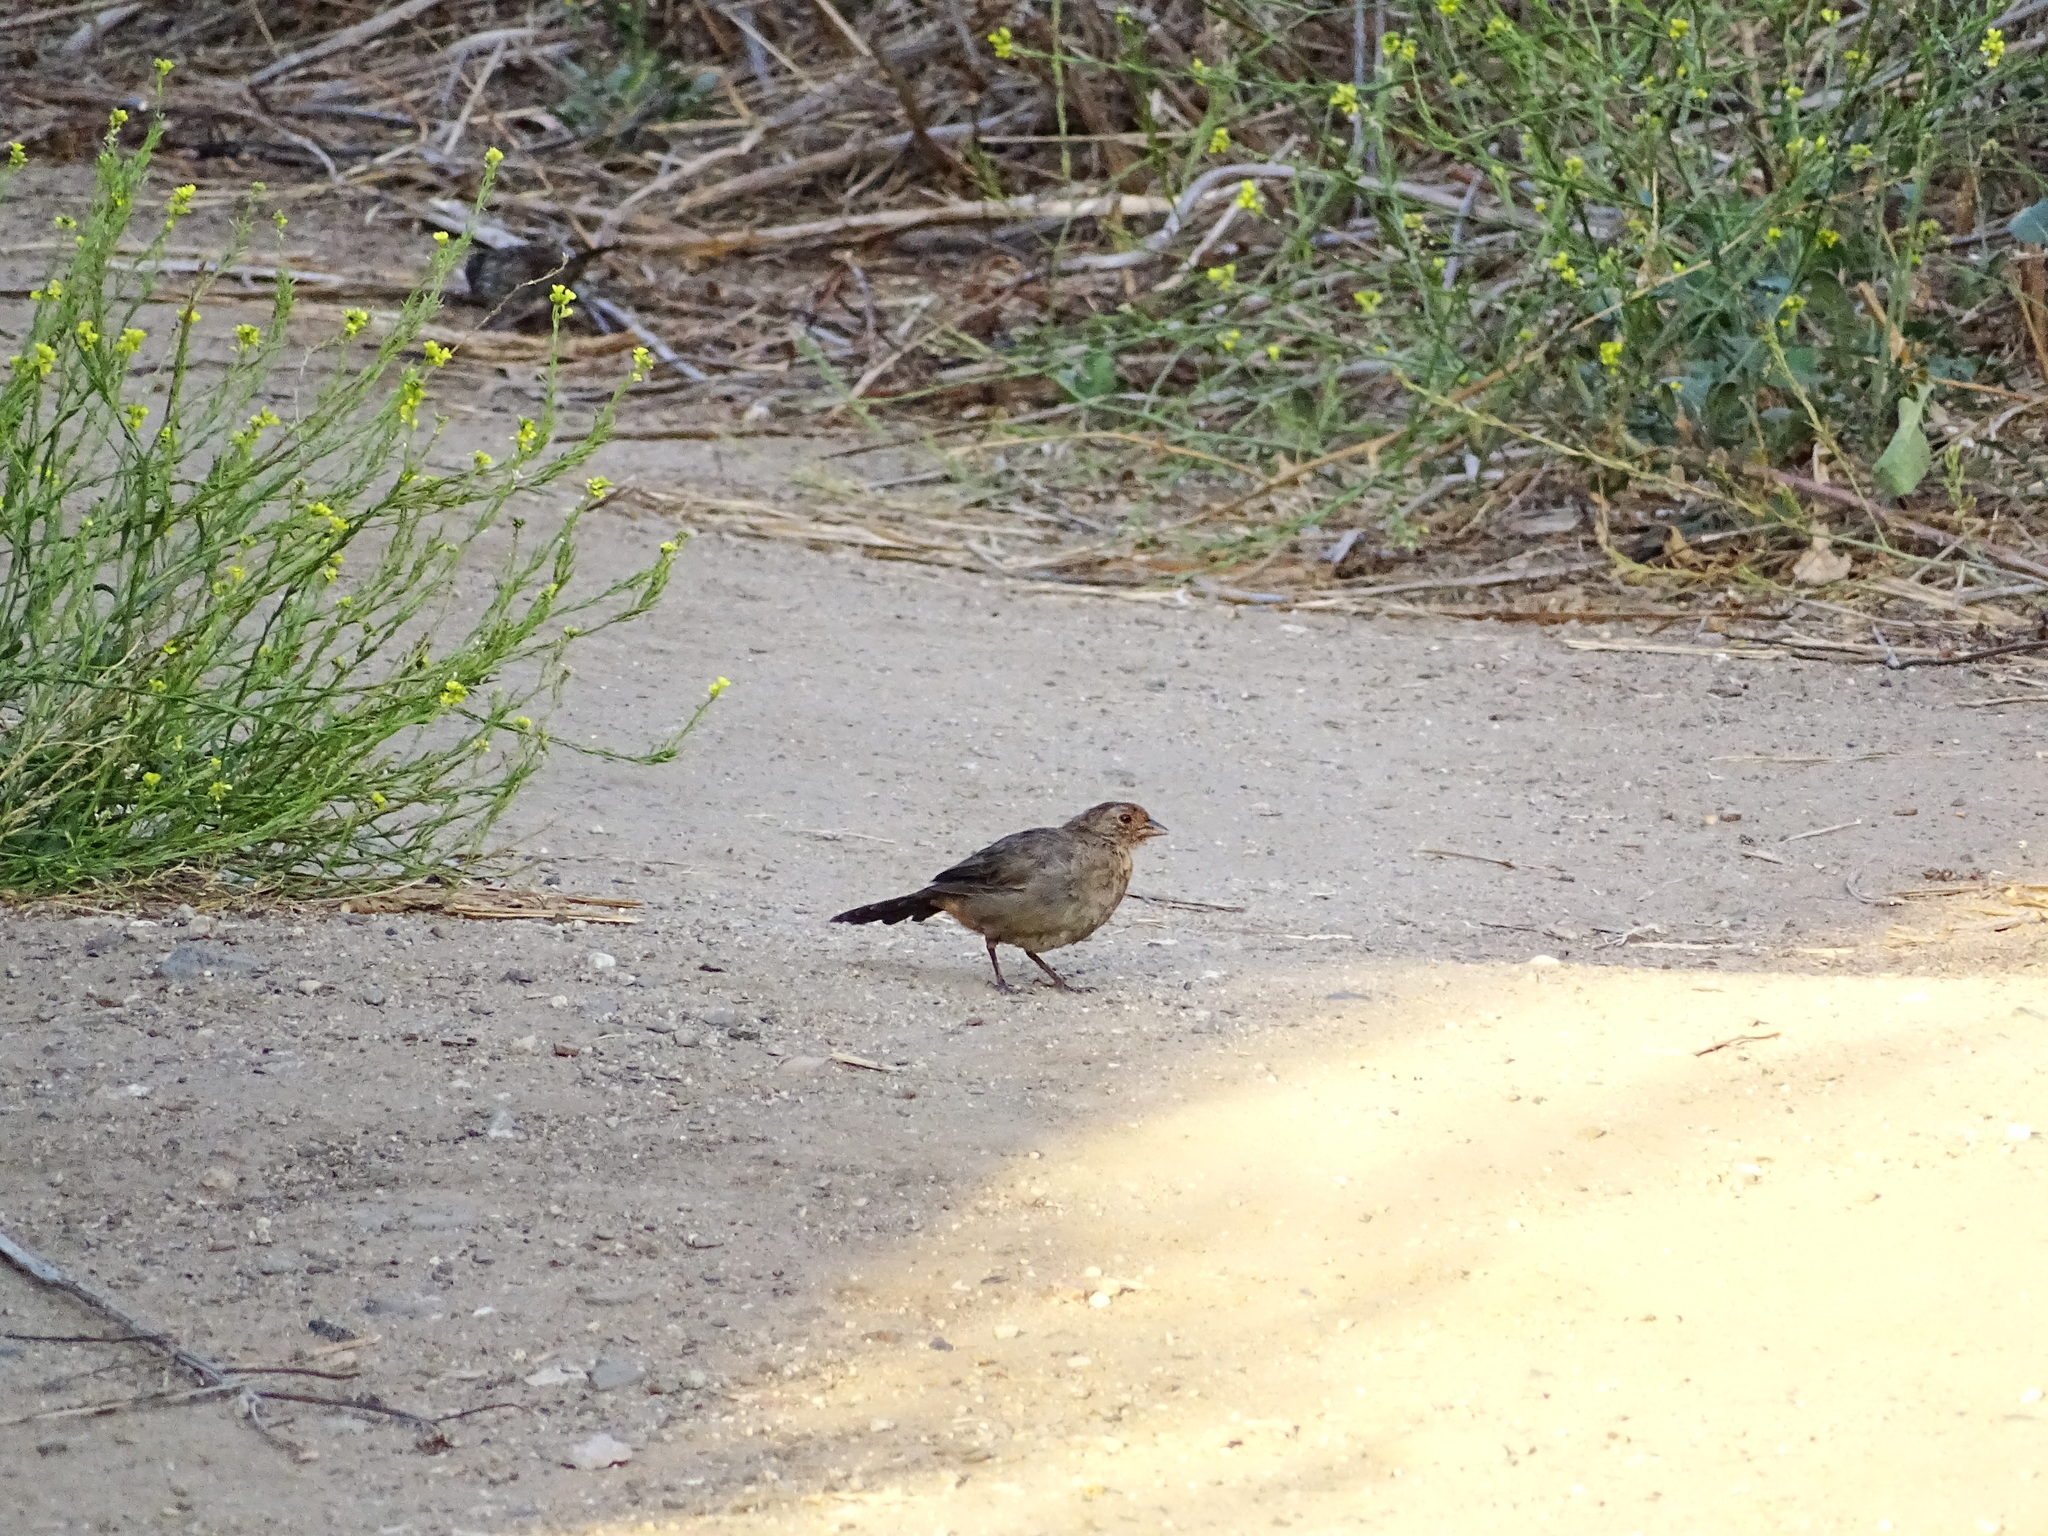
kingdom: Animalia
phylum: Chordata
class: Aves
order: Passeriformes
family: Passerellidae
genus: Melozone
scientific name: Melozone crissalis
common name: California towhee
